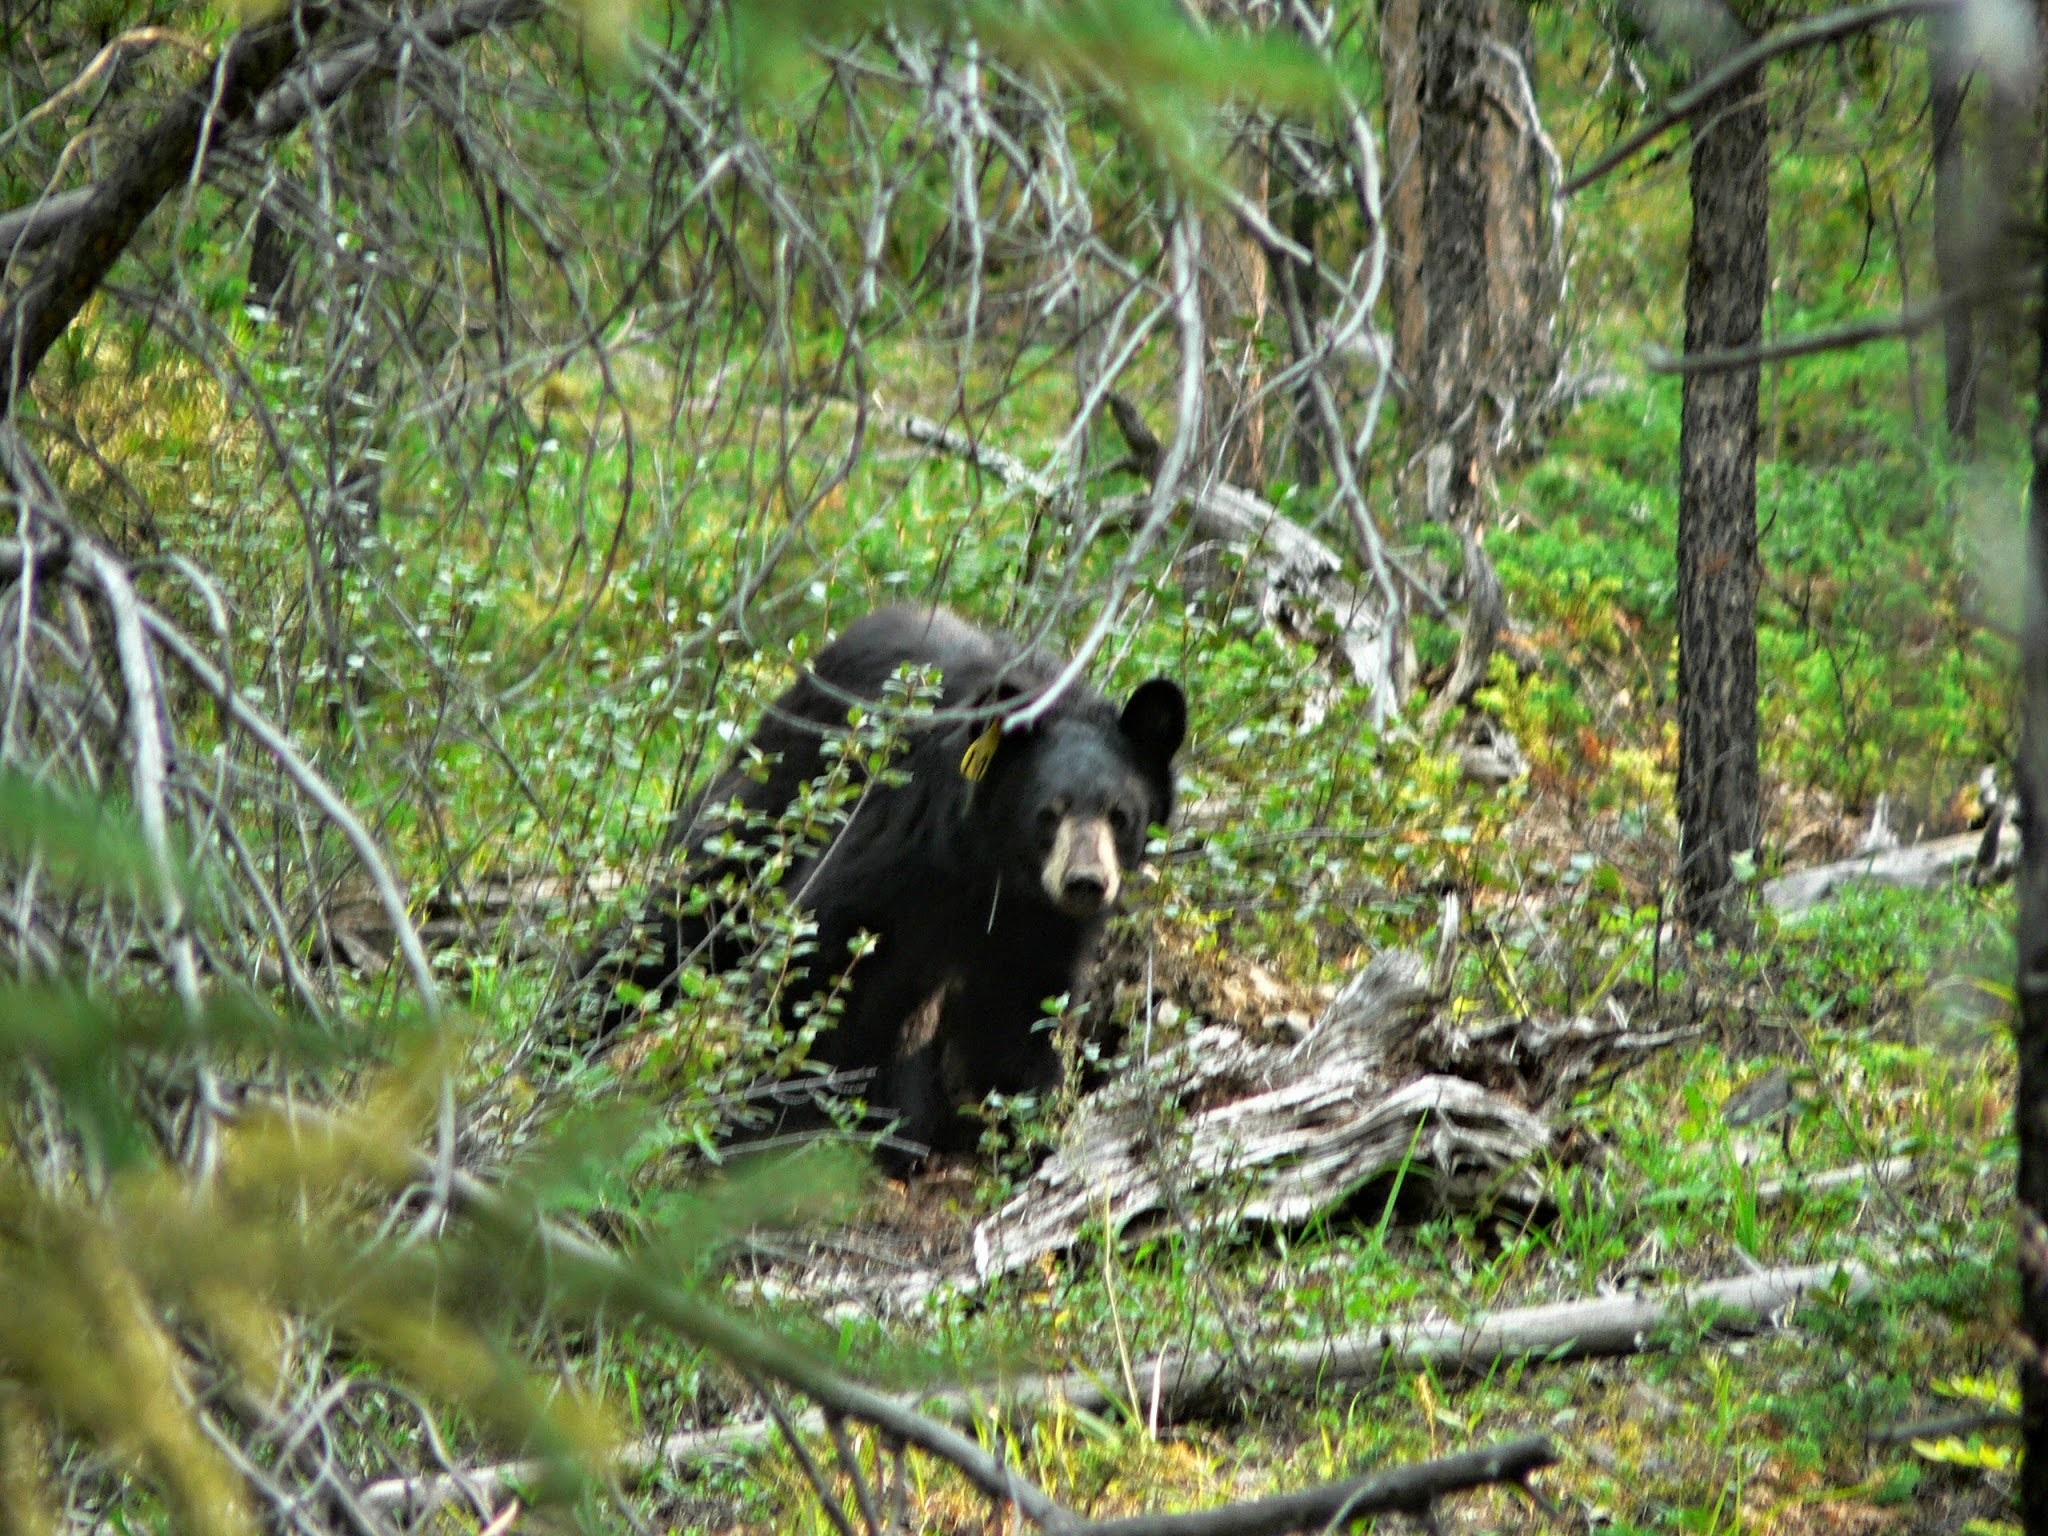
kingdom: Animalia
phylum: Chordata
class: Mammalia
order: Carnivora
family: Ursidae
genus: Ursus
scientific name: Ursus americanus
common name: American black bear
